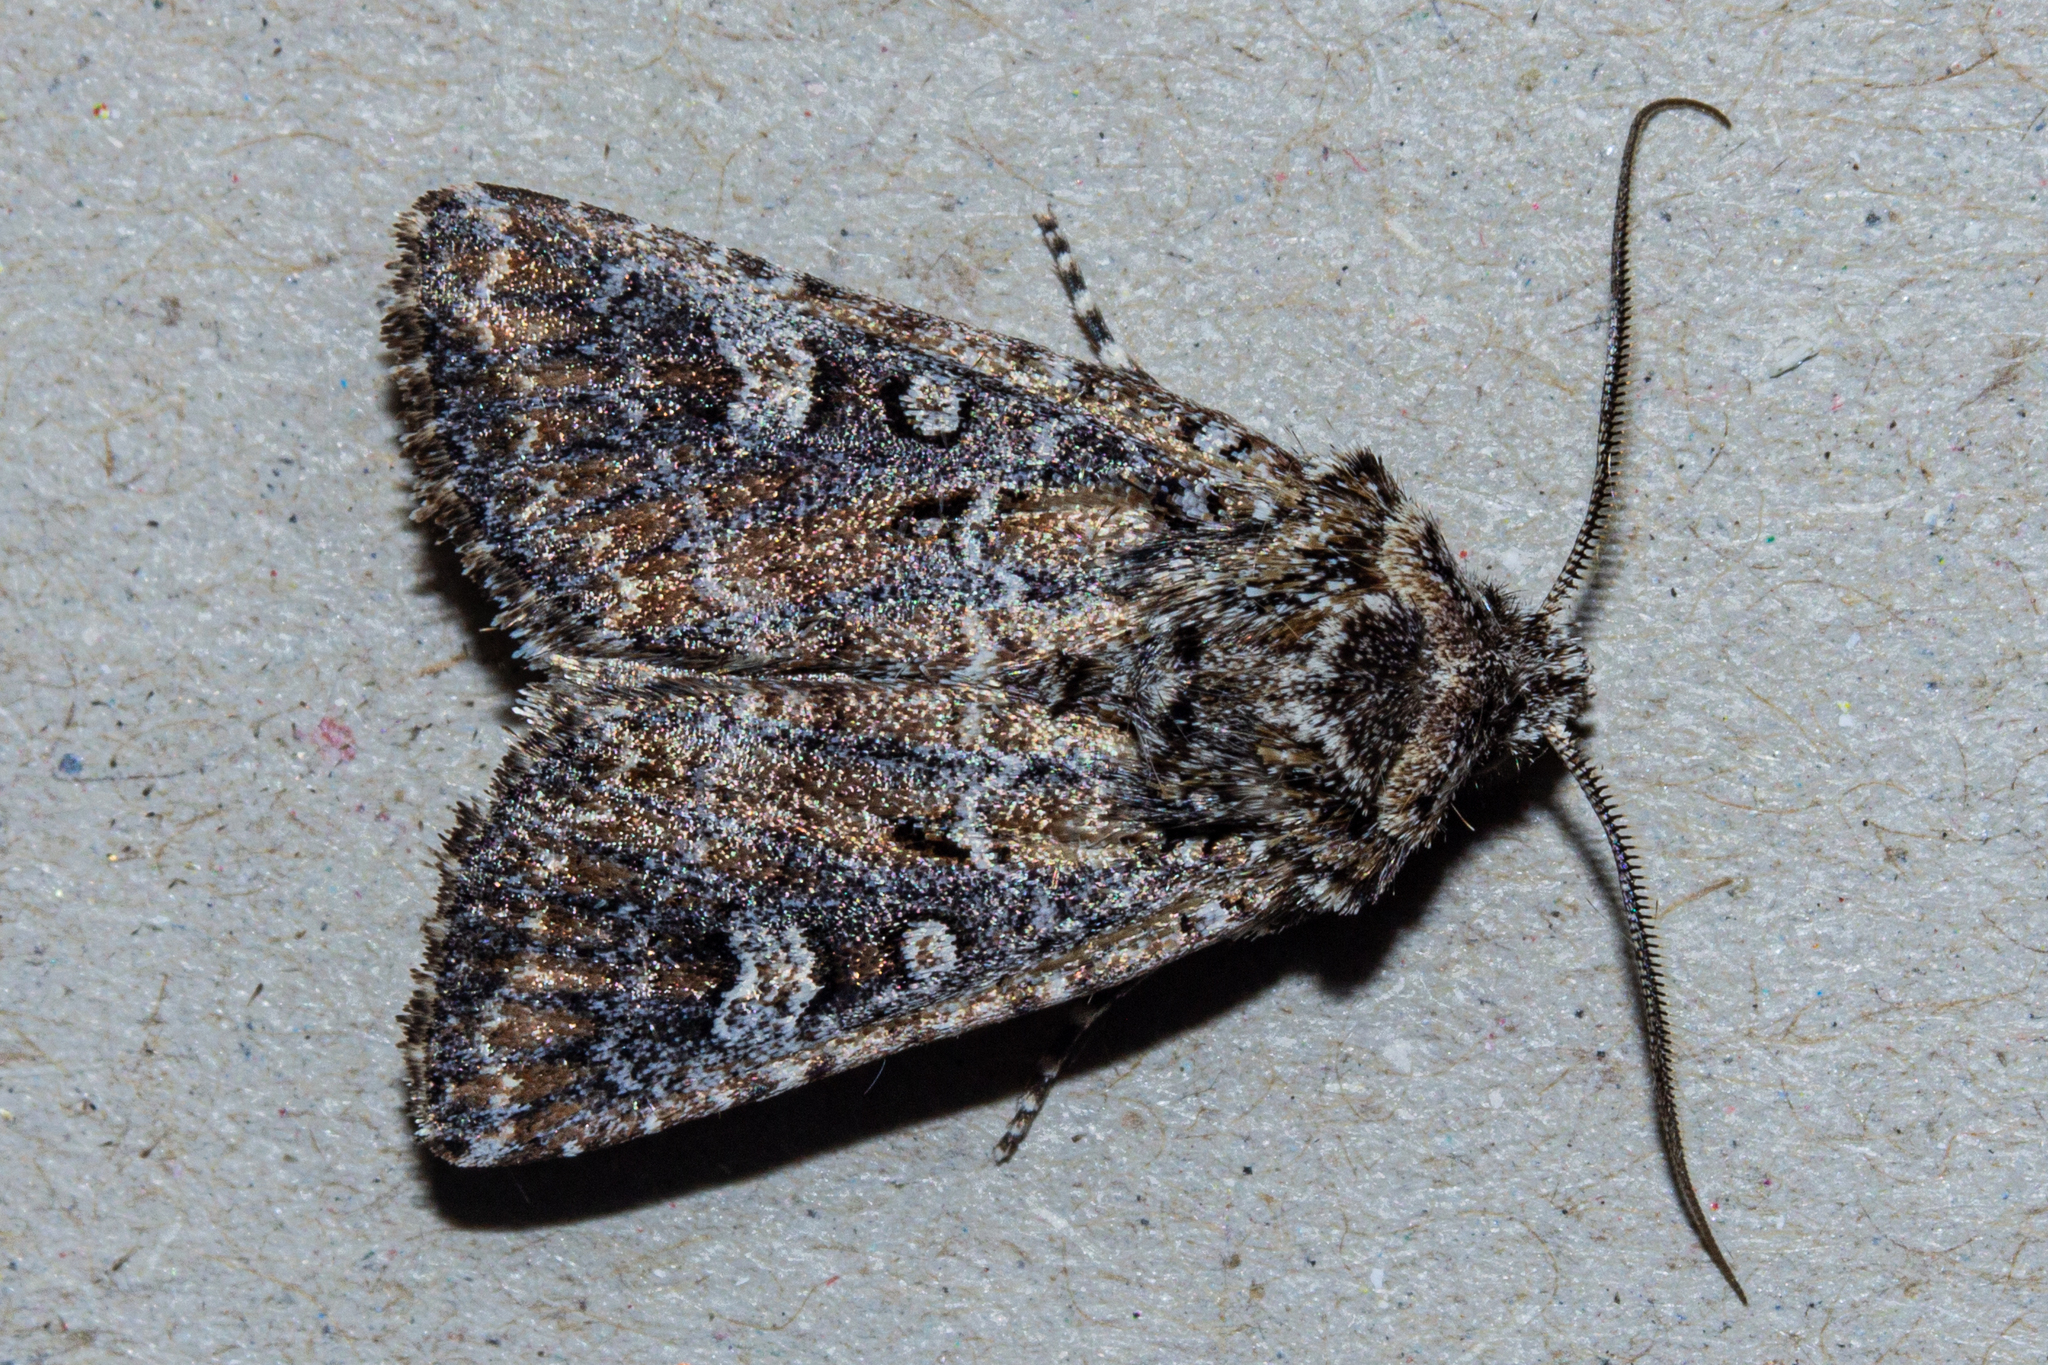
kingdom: Animalia
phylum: Arthropoda
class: Insecta
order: Lepidoptera
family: Noctuidae
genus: Ichneutica
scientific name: Ichneutica lithias
